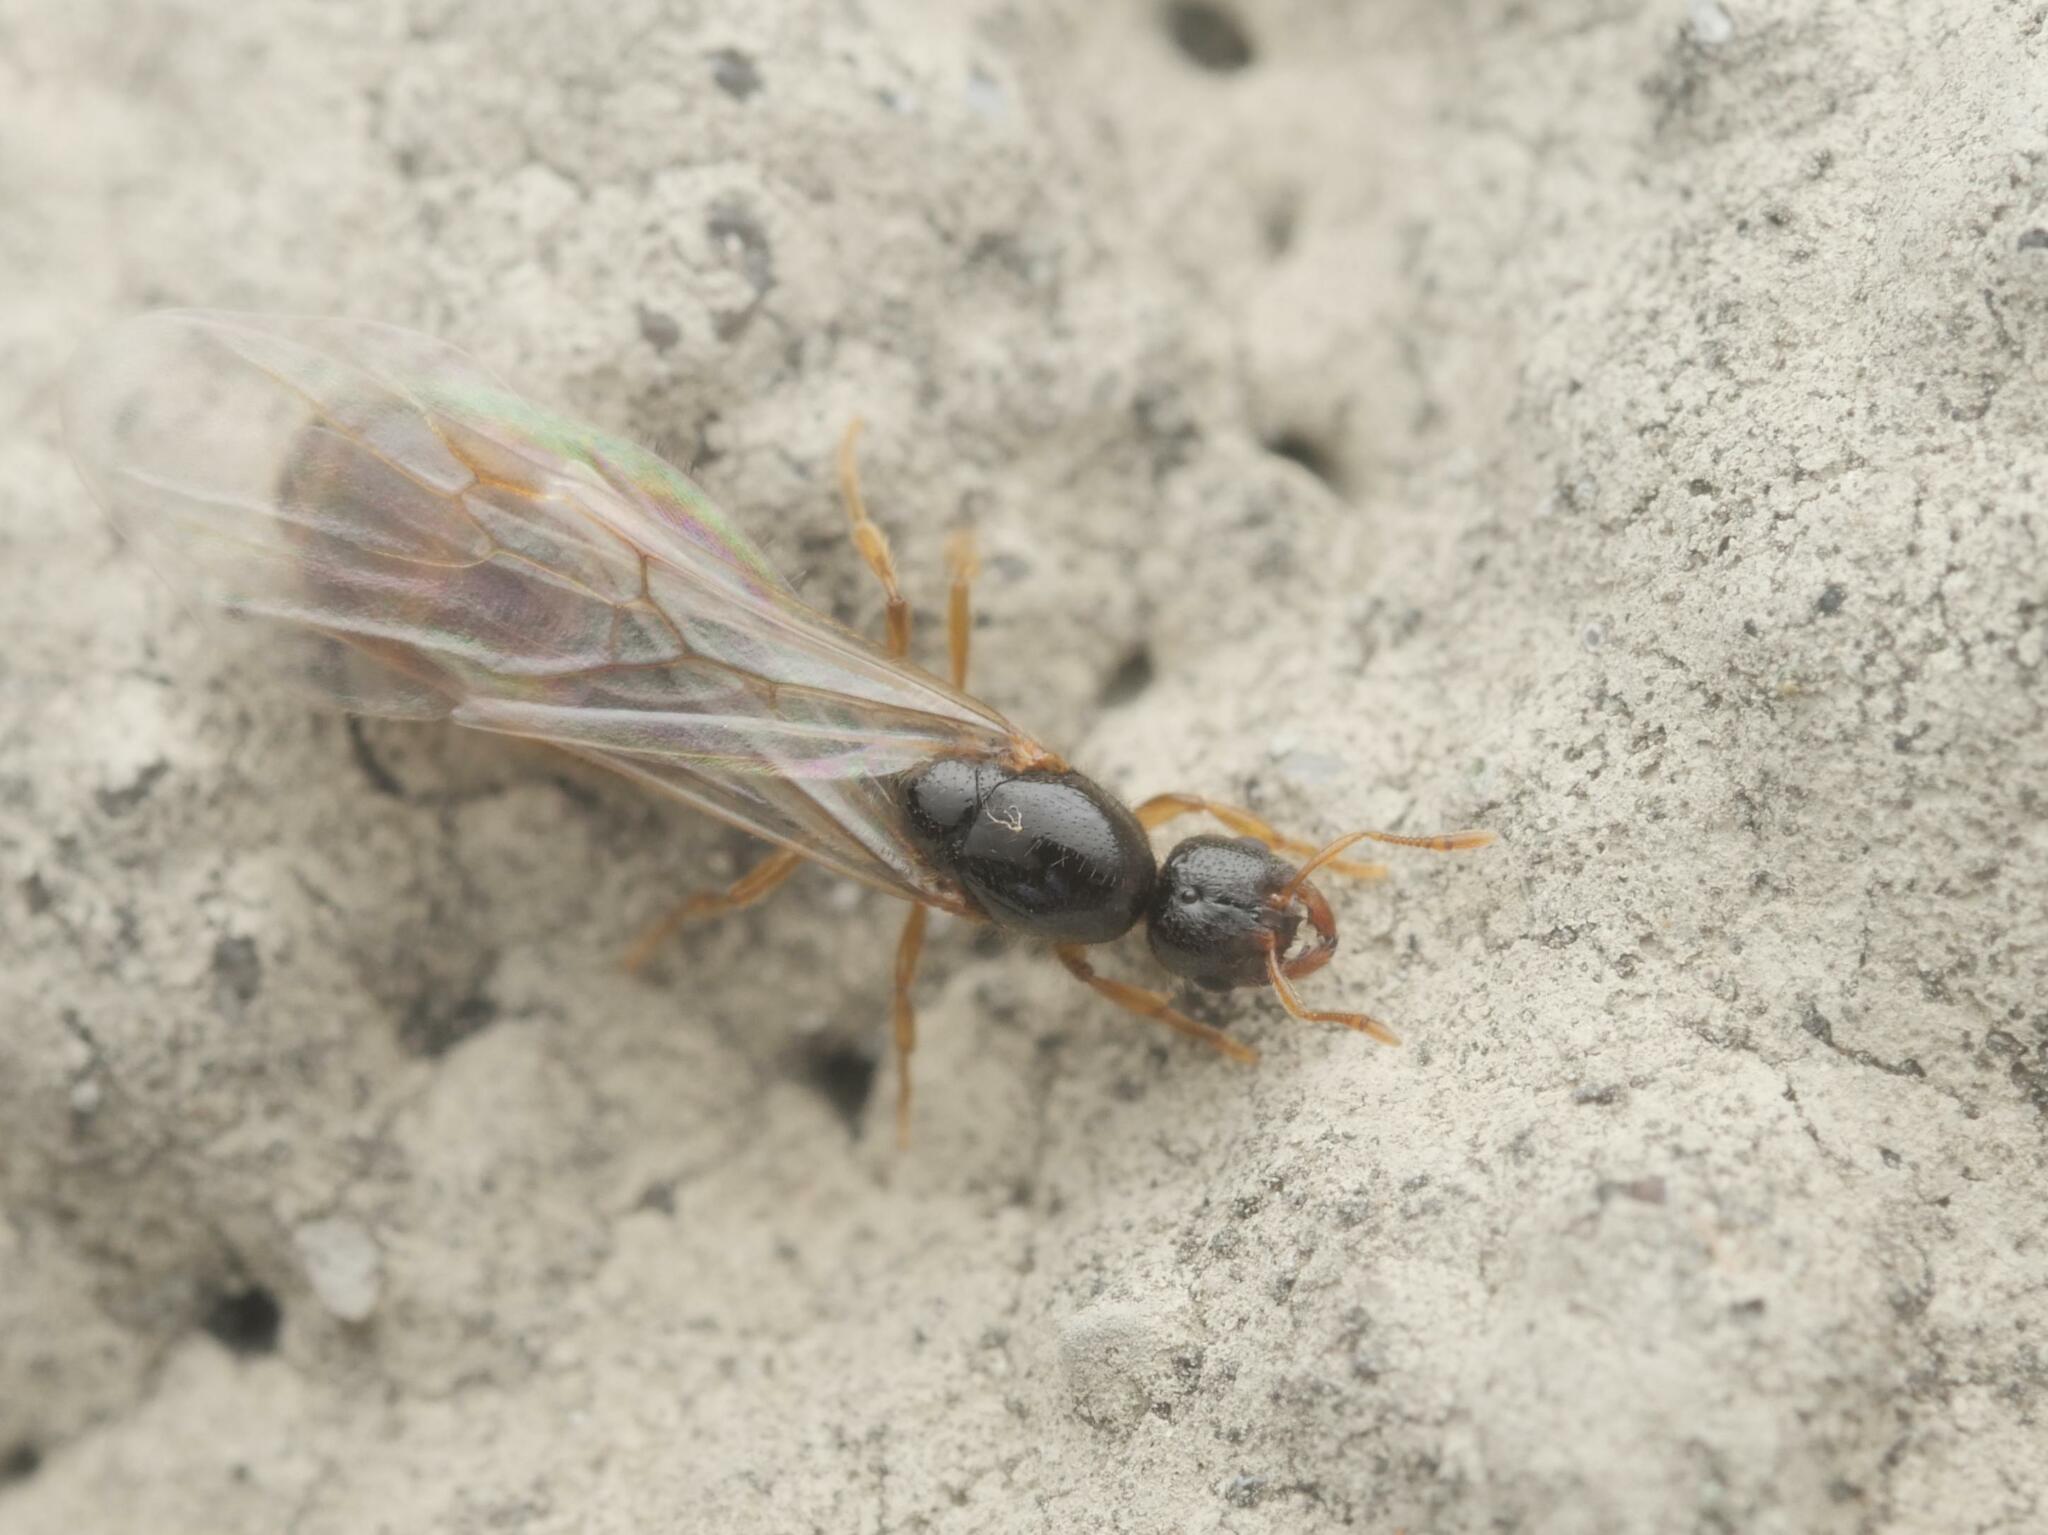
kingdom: Animalia
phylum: Arthropoda
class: Insecta
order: Hymenoptera
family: Formicidae
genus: Solenopsis
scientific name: Solenopsis fugax
